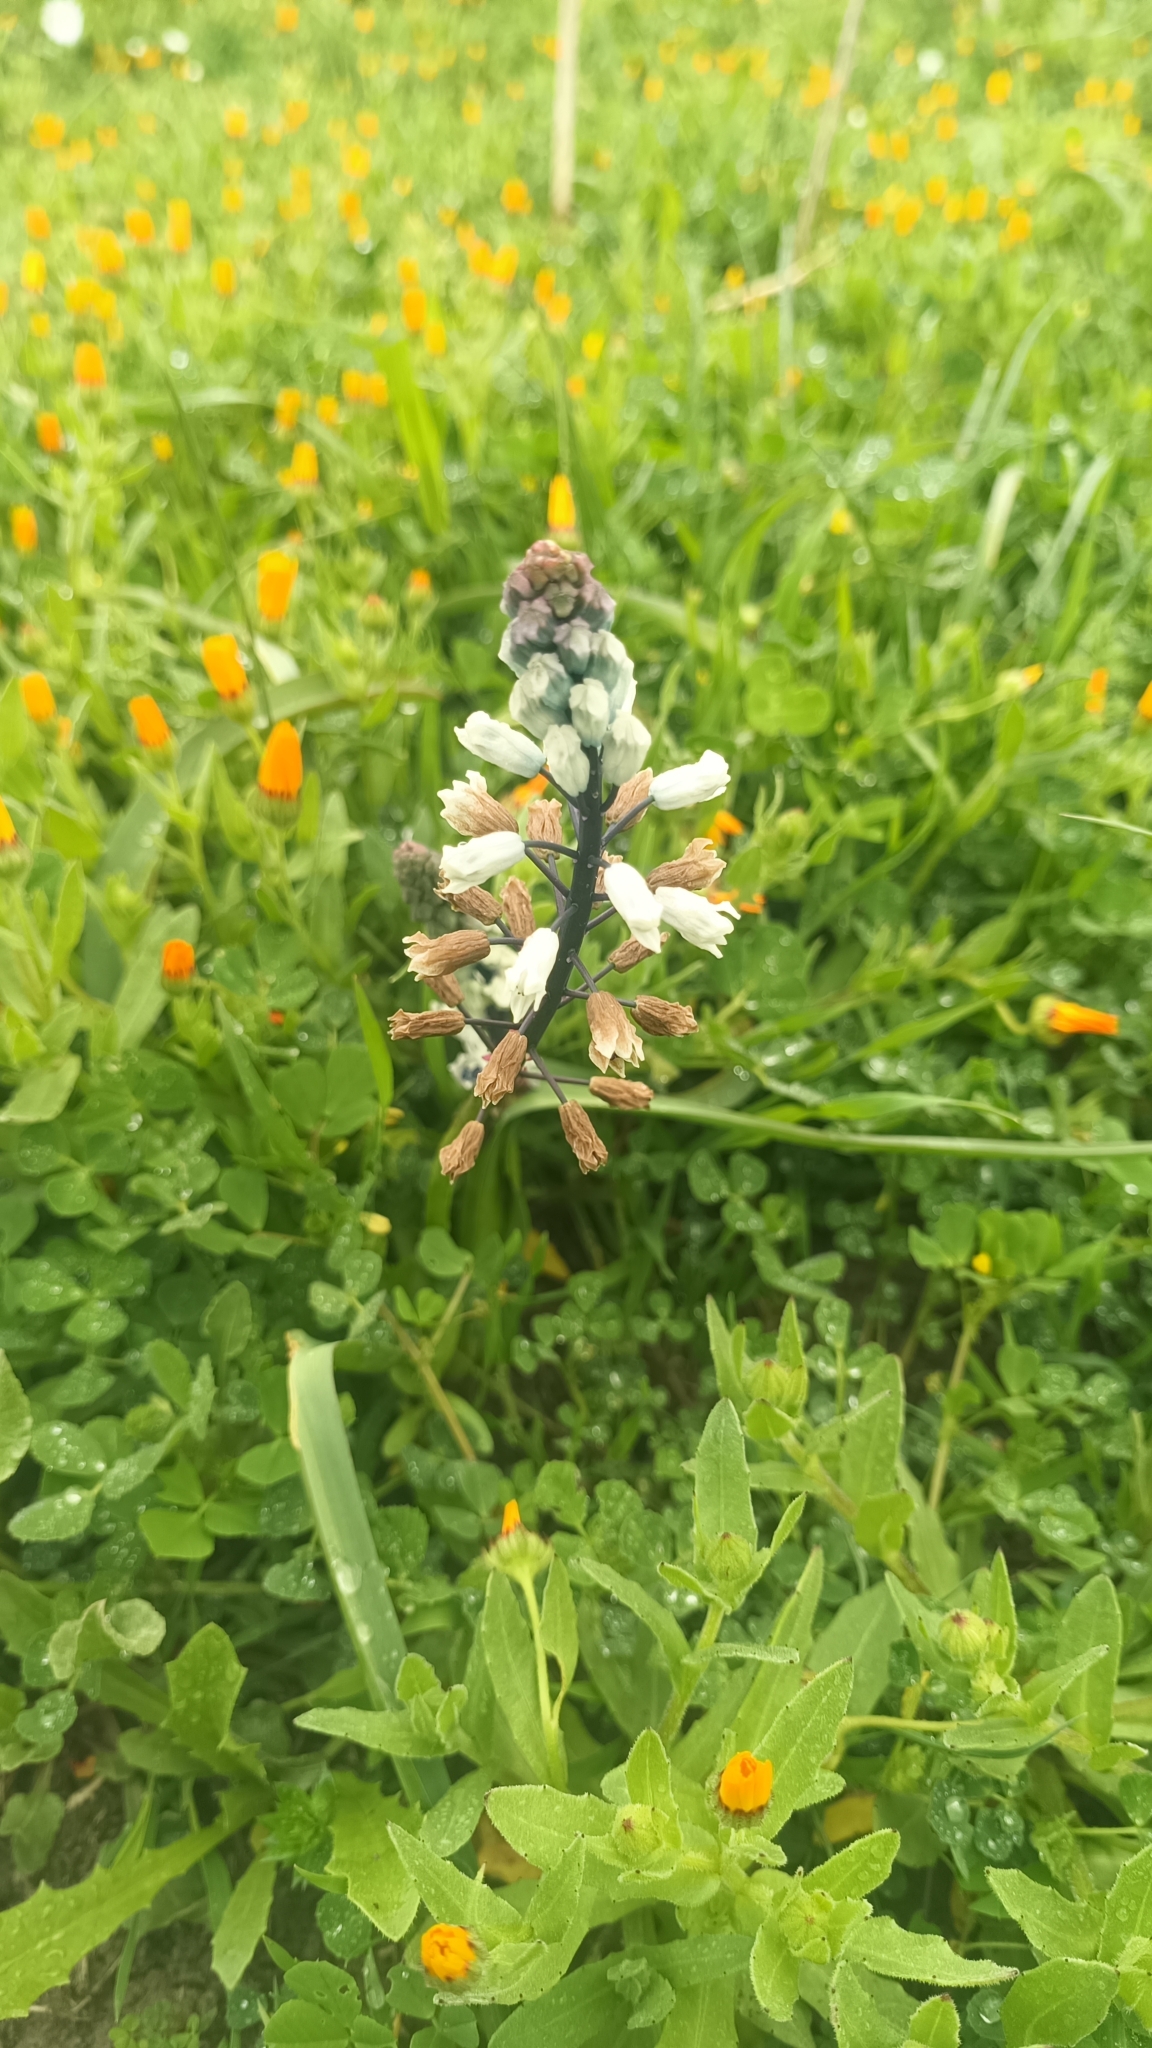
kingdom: Plantae
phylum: Tracheophyta
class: Liliopsida
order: Asparagales
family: Asparagaceae
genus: Bellevalia
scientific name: Bellevalia romana
